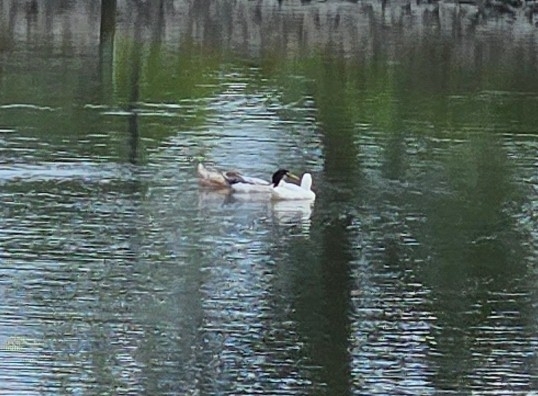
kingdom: Animalia
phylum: Chordata
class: Aves
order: Anseriformes
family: Anatidae
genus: Anas
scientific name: Anas platyrhynchos
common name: Mallard
